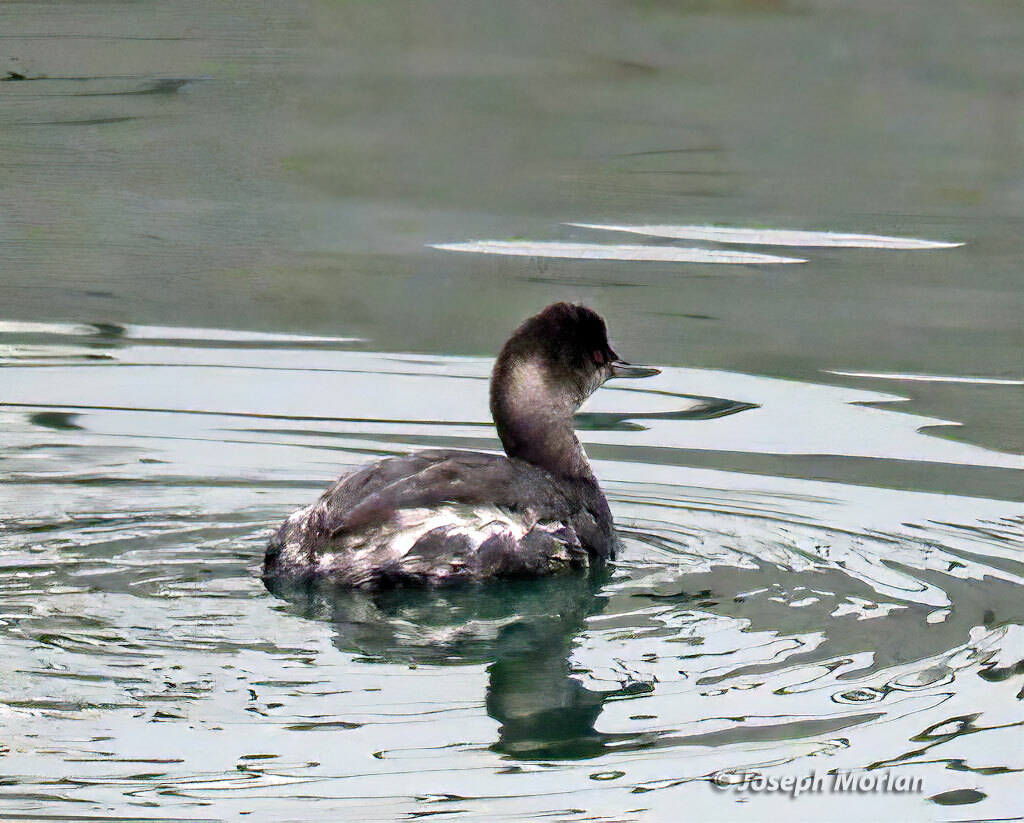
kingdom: Animalia
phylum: Chordata
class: Aves
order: Podicipediformes
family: Podicipedidae
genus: Podiceps
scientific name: Podiceps nigricollis
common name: Black-necked grebe
